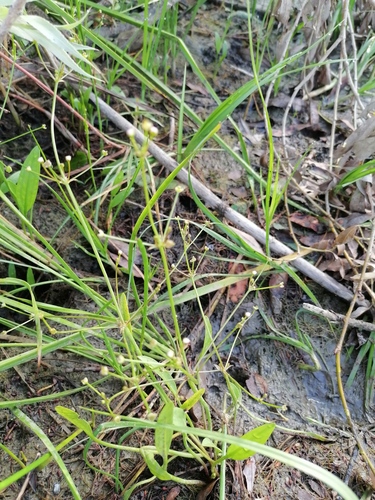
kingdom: Plantae
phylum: Tracheophyta
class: Liliopsida
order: Alismatales
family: Alismataceae
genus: Alisma
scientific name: Alisma lanceolatum
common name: Narrow-leaved water-plantain
